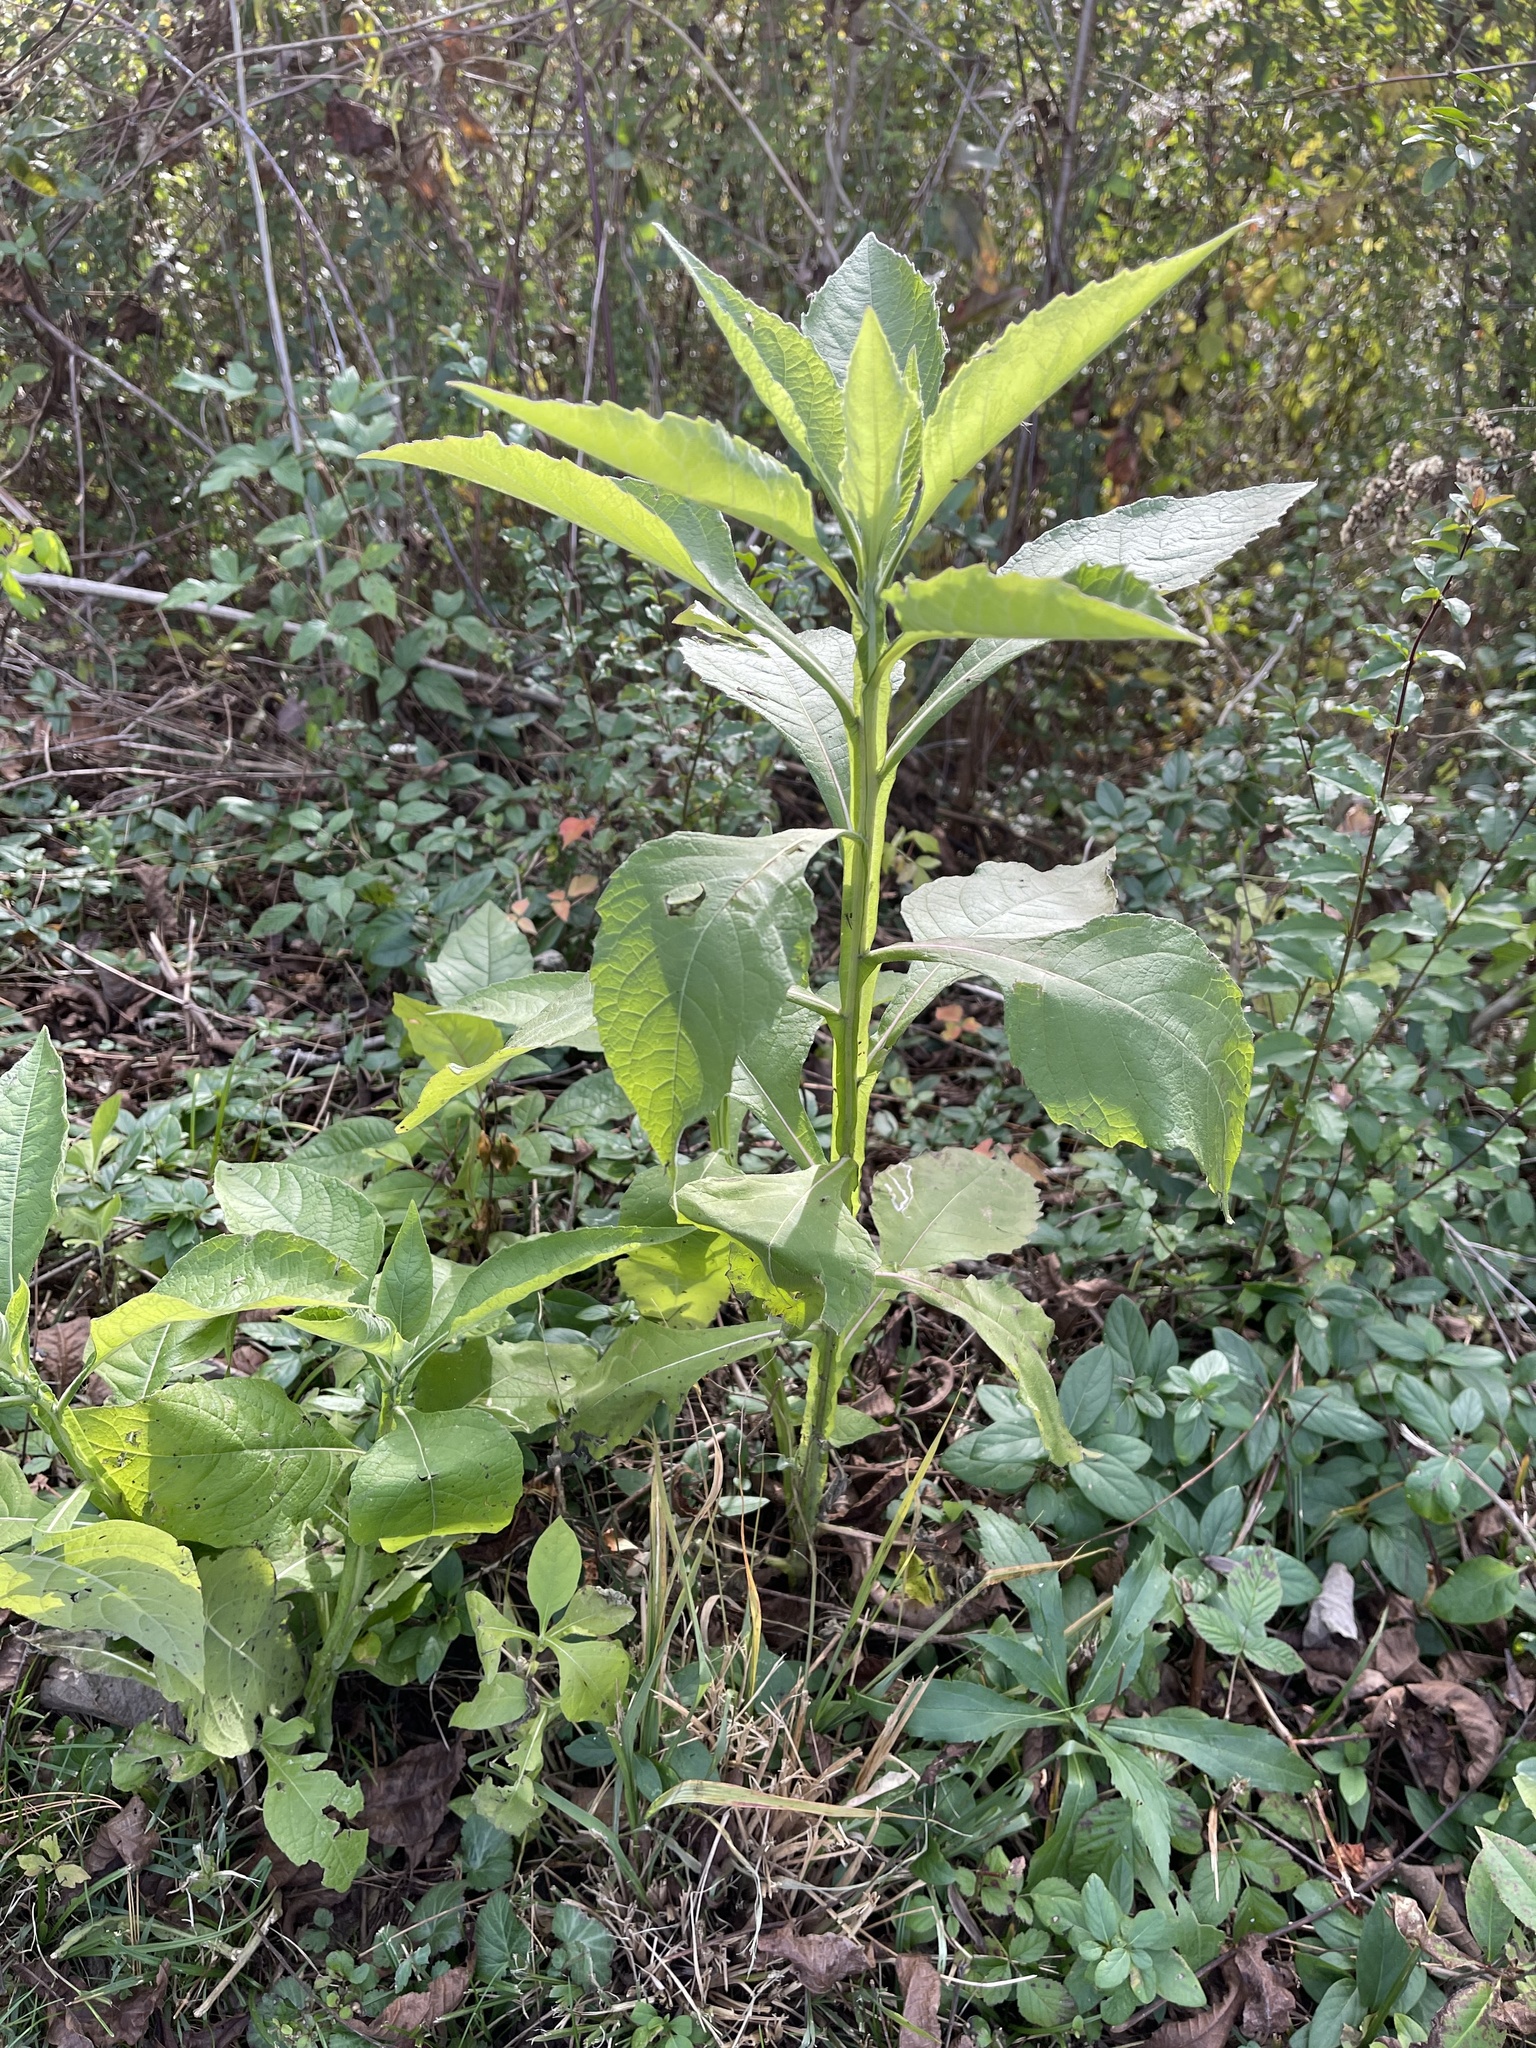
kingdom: Plantae
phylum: Tracheophyta
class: Magnoliopsida
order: Asterales
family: Asteraceae
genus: Verbesina
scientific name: Verbesina virginica
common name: Frostweed
